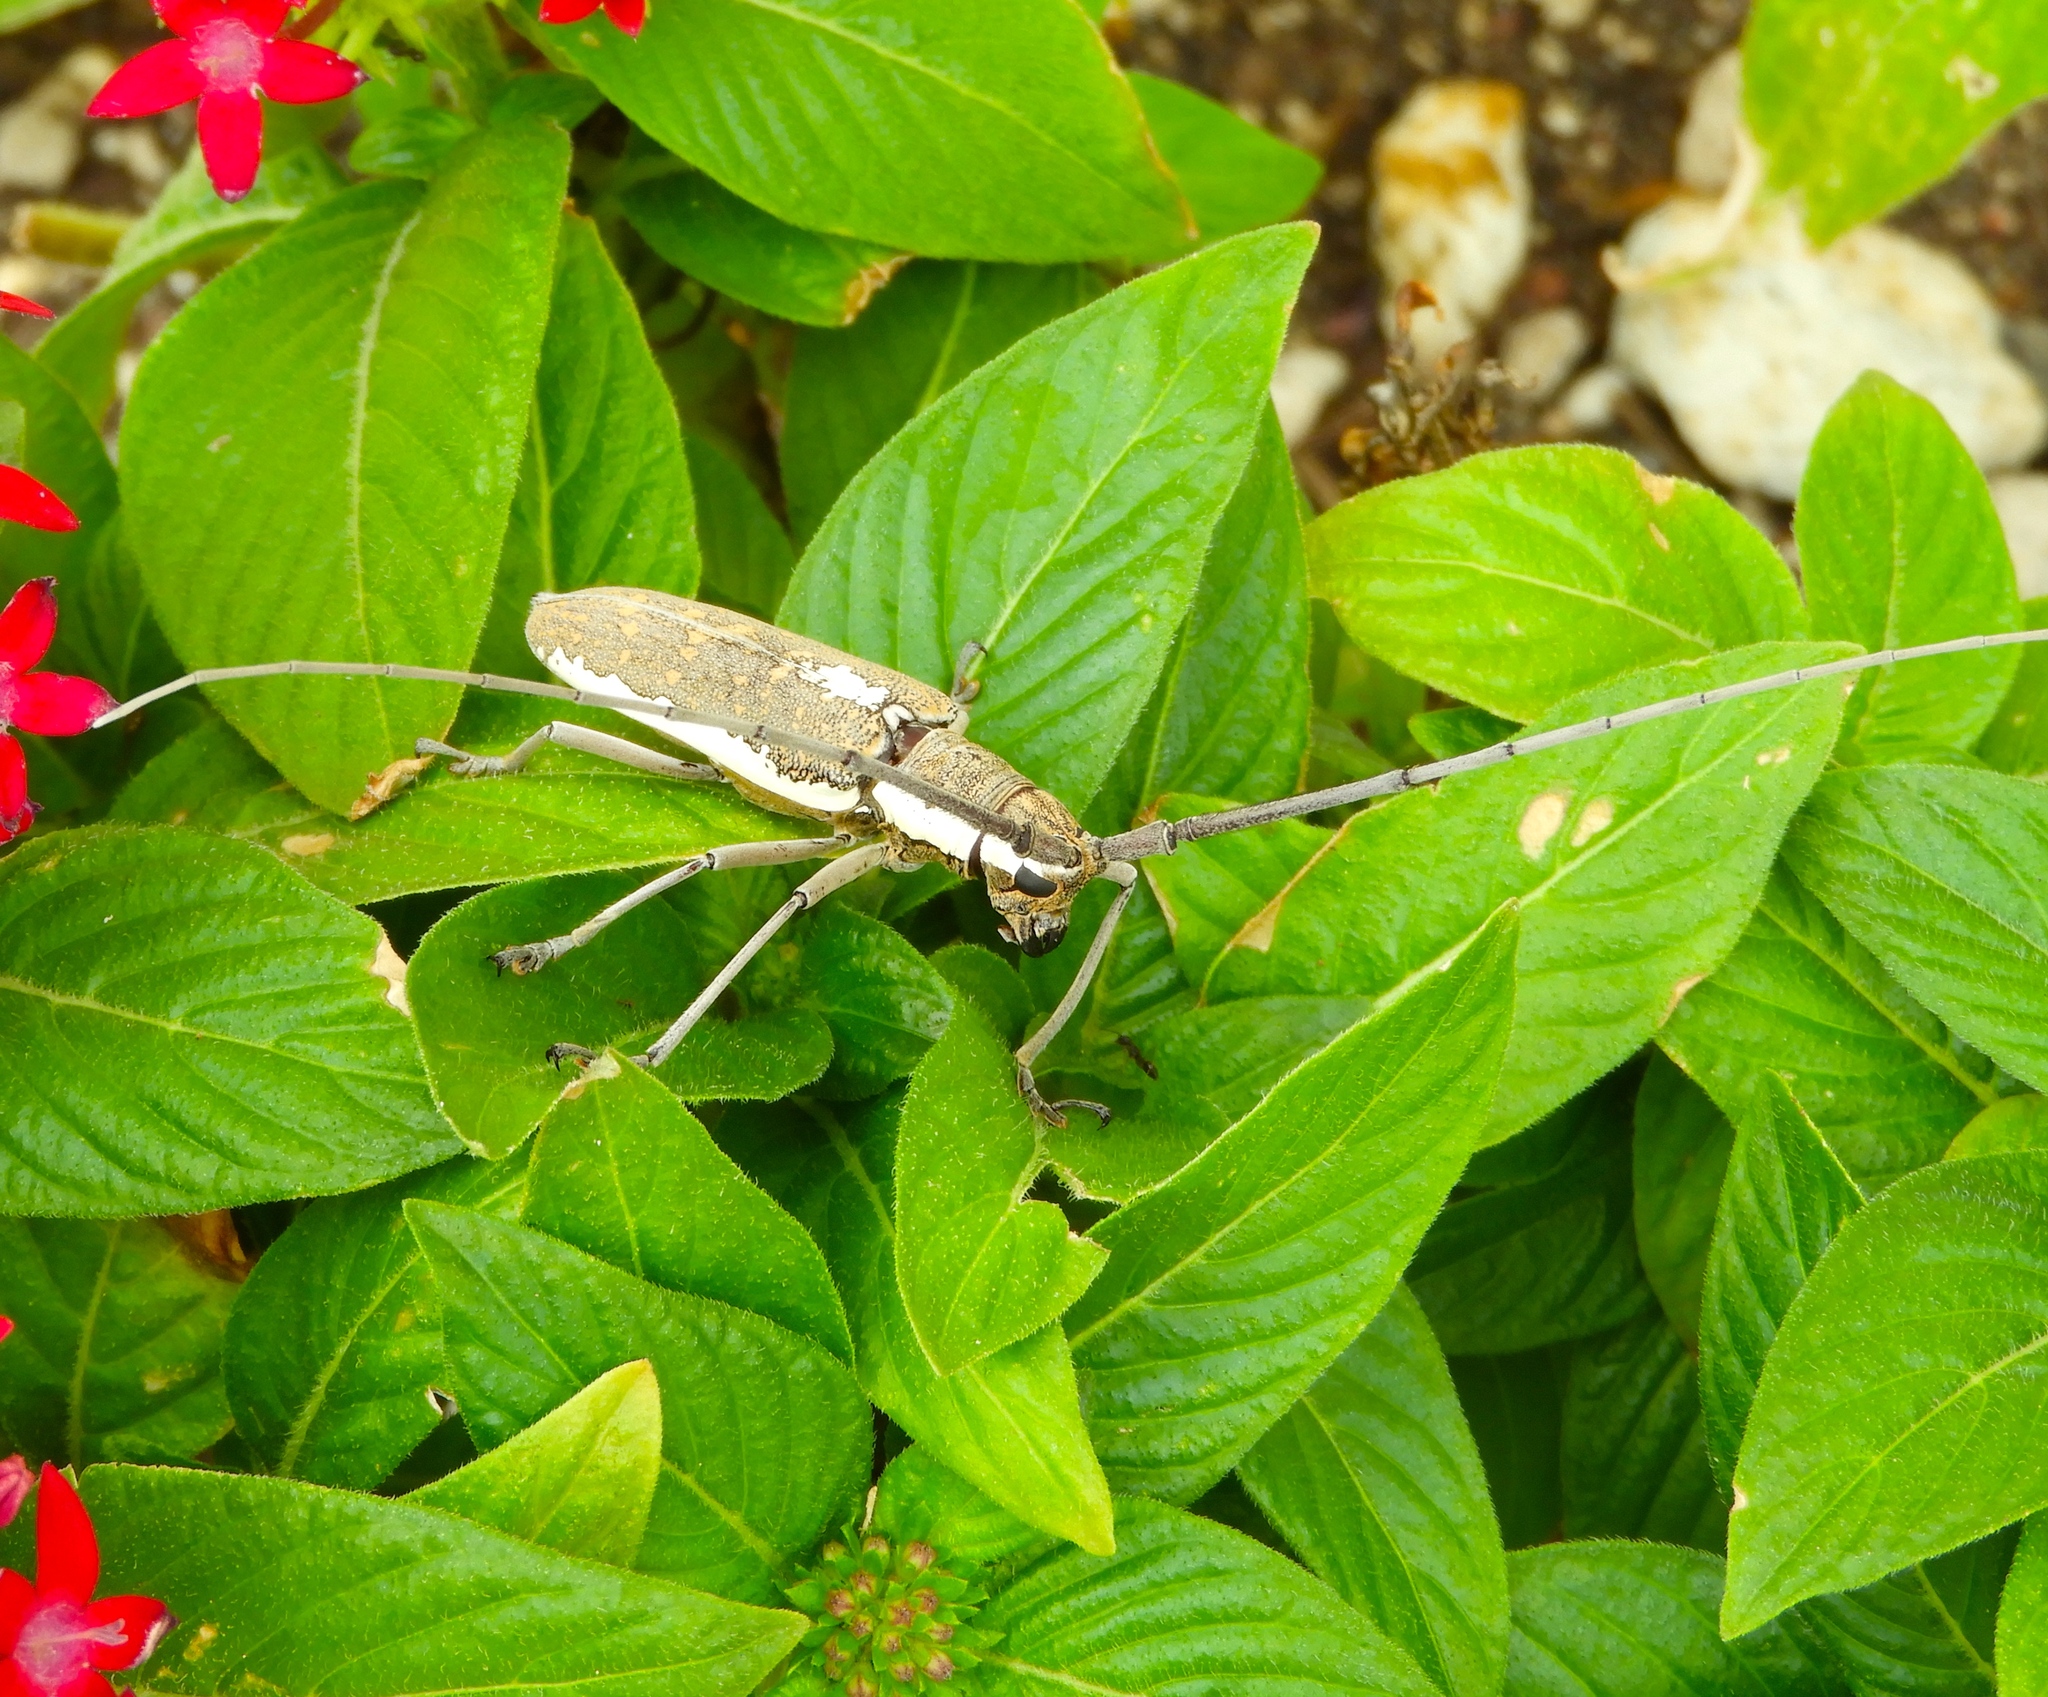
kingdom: Animalia
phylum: Arthropoda
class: Insecta
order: Coleoptera
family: Cerambycidae
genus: Neoptychodes
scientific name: Neoptychodes trilineatus
